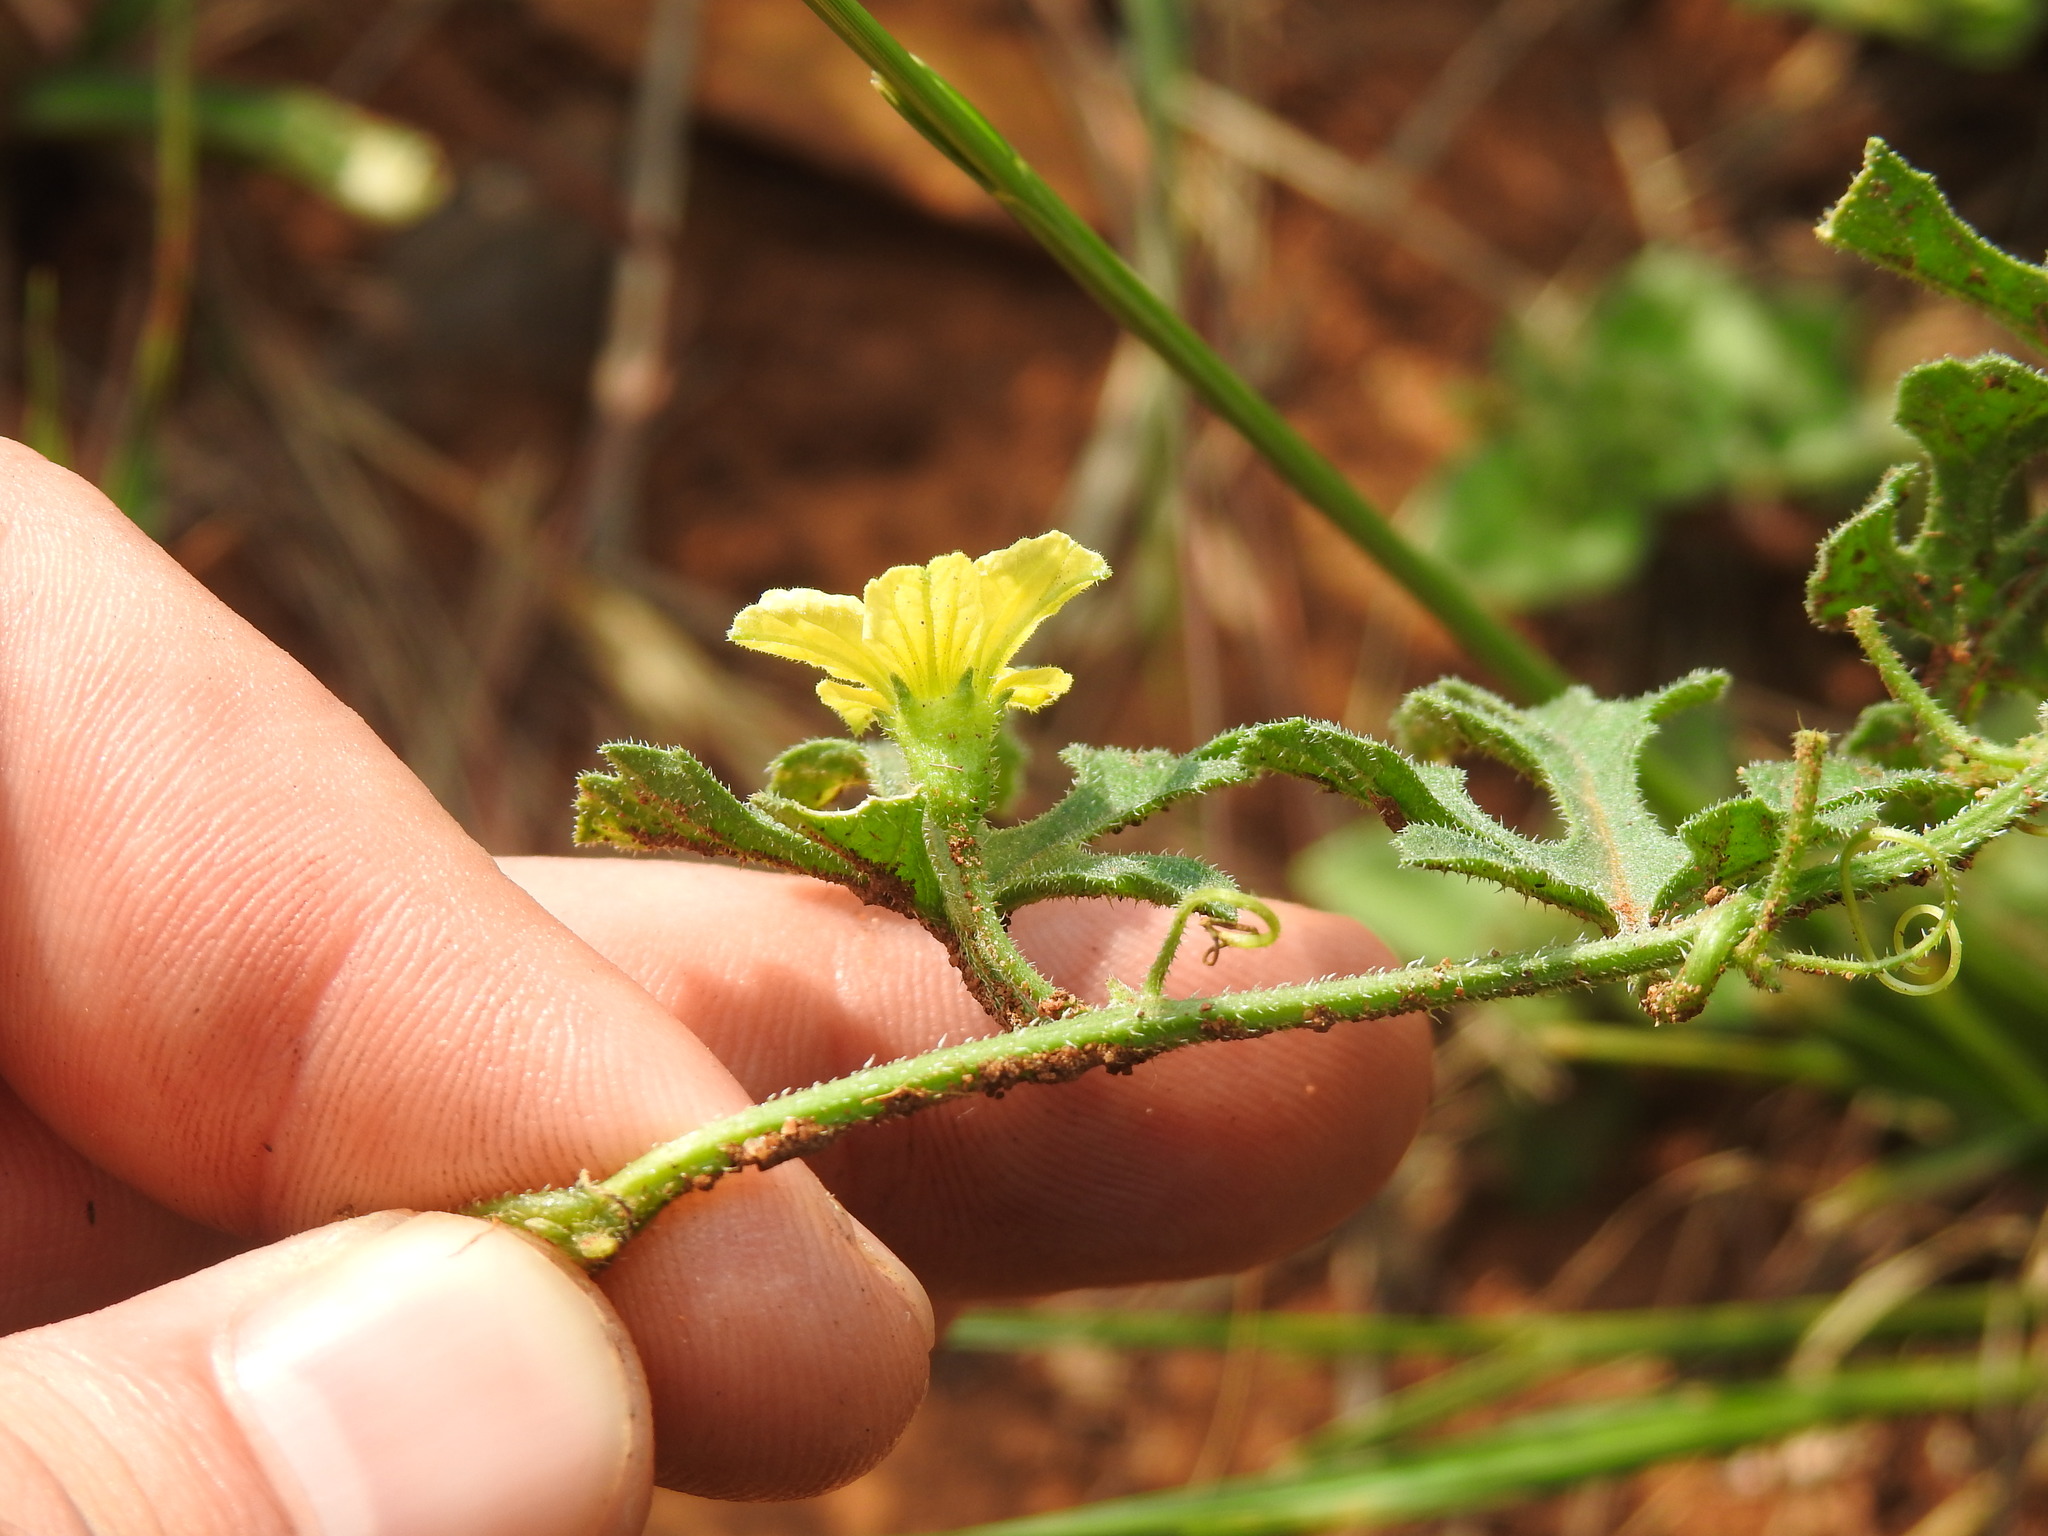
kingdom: Plantae
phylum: Tracheophyta
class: Magnoliopsida
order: Cucurbitales
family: Cucurbitaceae
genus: Cucumis
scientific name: Cucumis zeyheri
